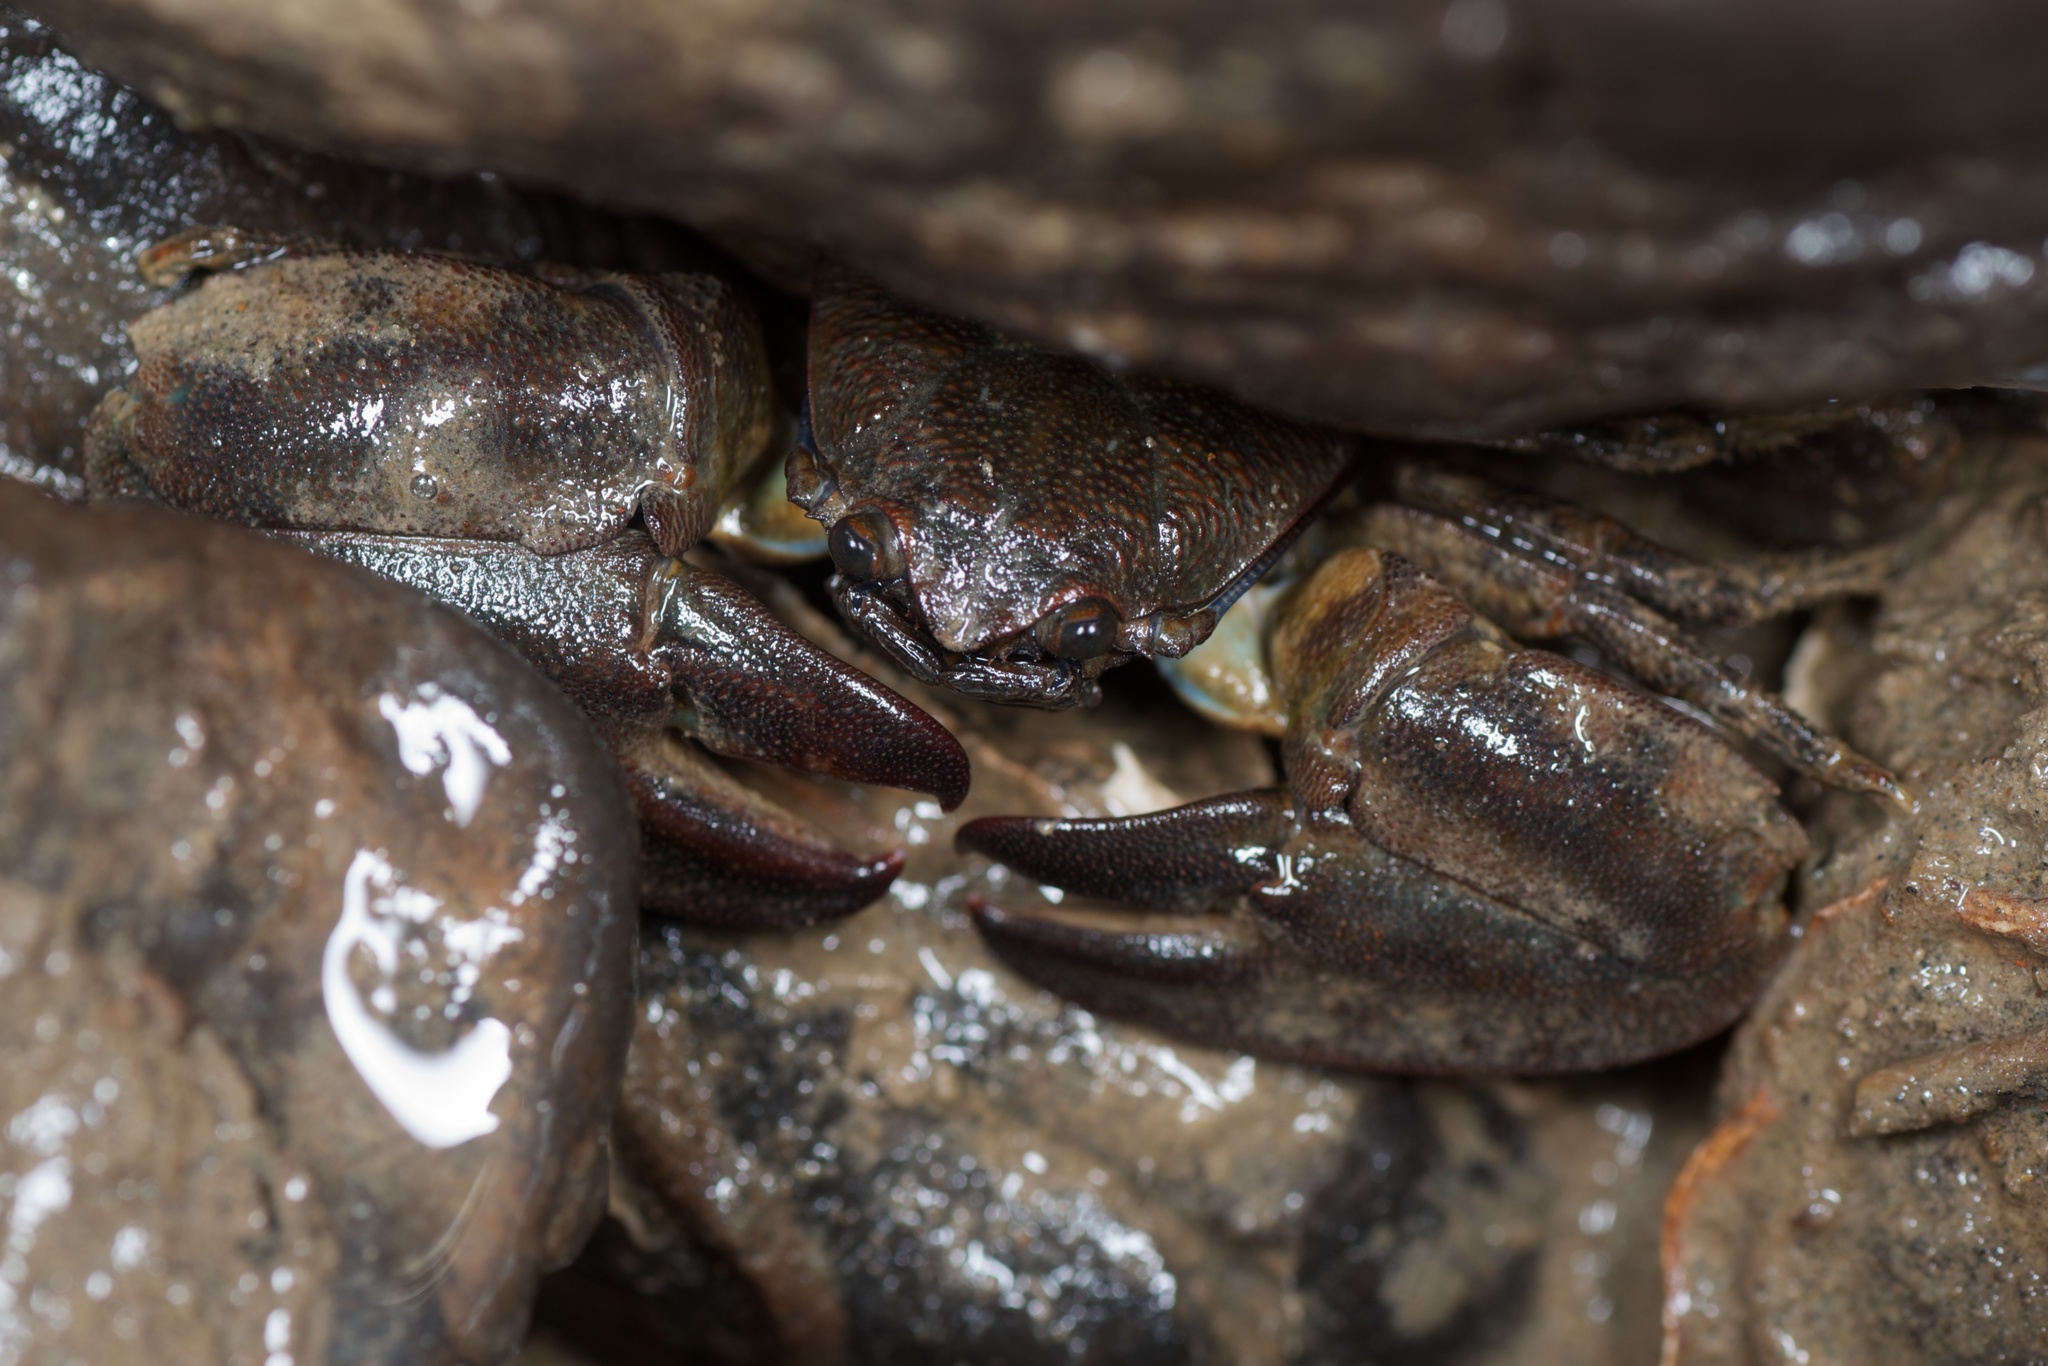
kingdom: Animalia
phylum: Arthropoda
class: Malacostraca
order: Decapoda
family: Porcellanidae
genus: Petrolisthes
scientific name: Petrolisthes elongatus
